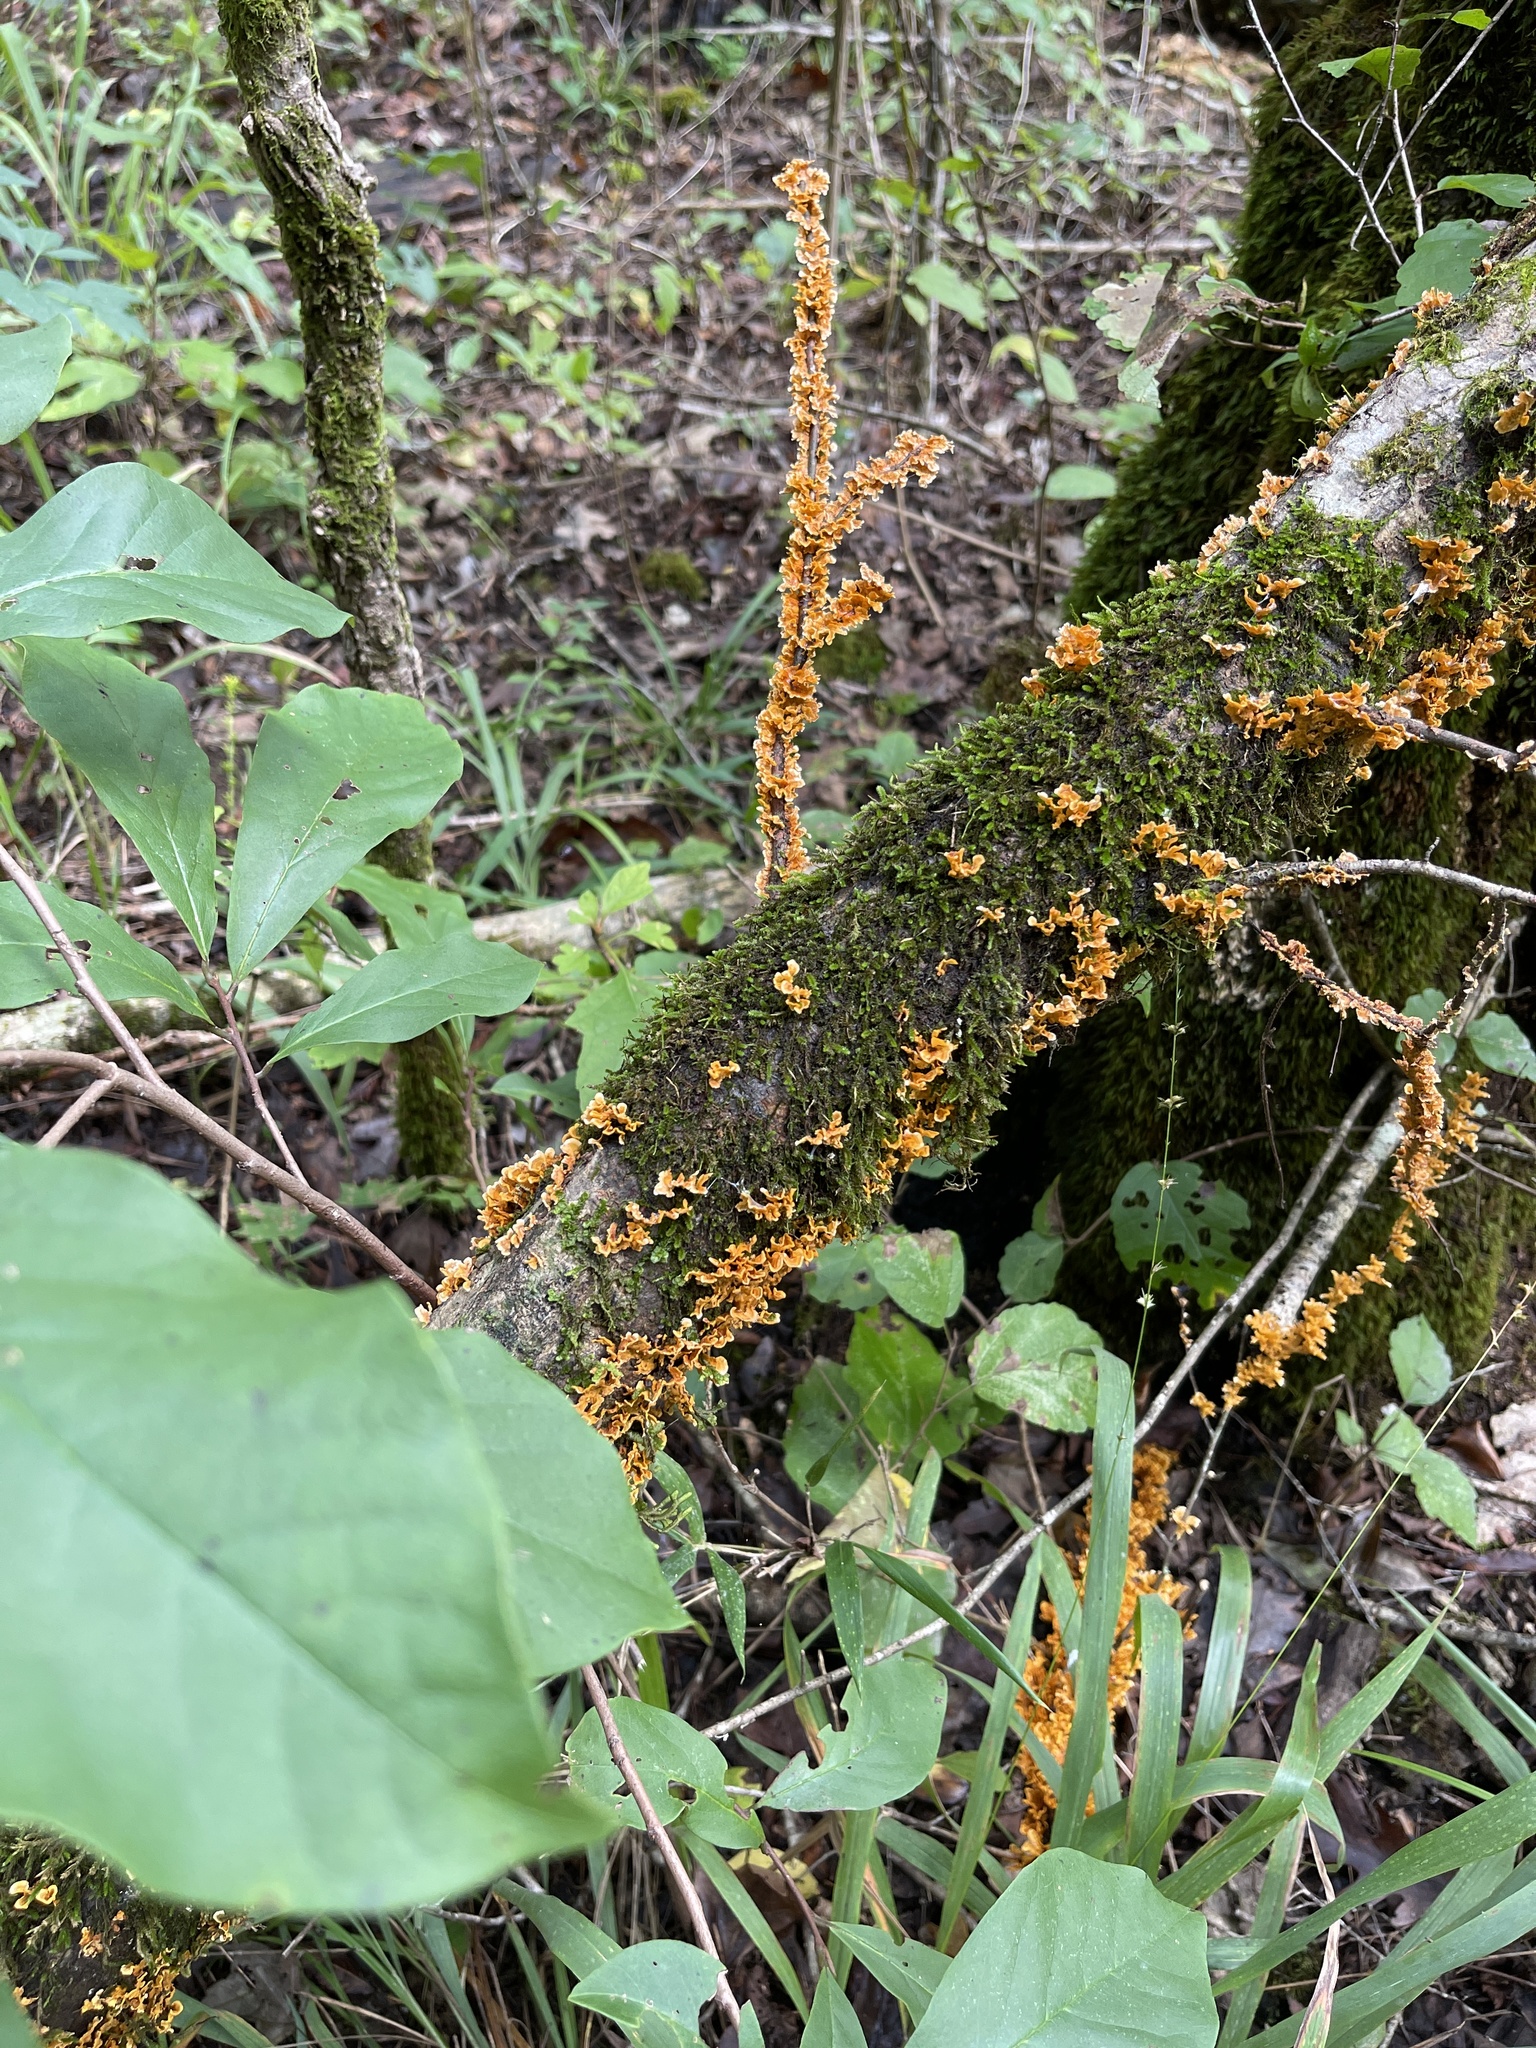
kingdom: Fungi
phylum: Basidiomycota
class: Agaricomycetes
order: Russulales
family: Stereaceae
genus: Stereum
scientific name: Stereum complicatum
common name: Crowded parchment
